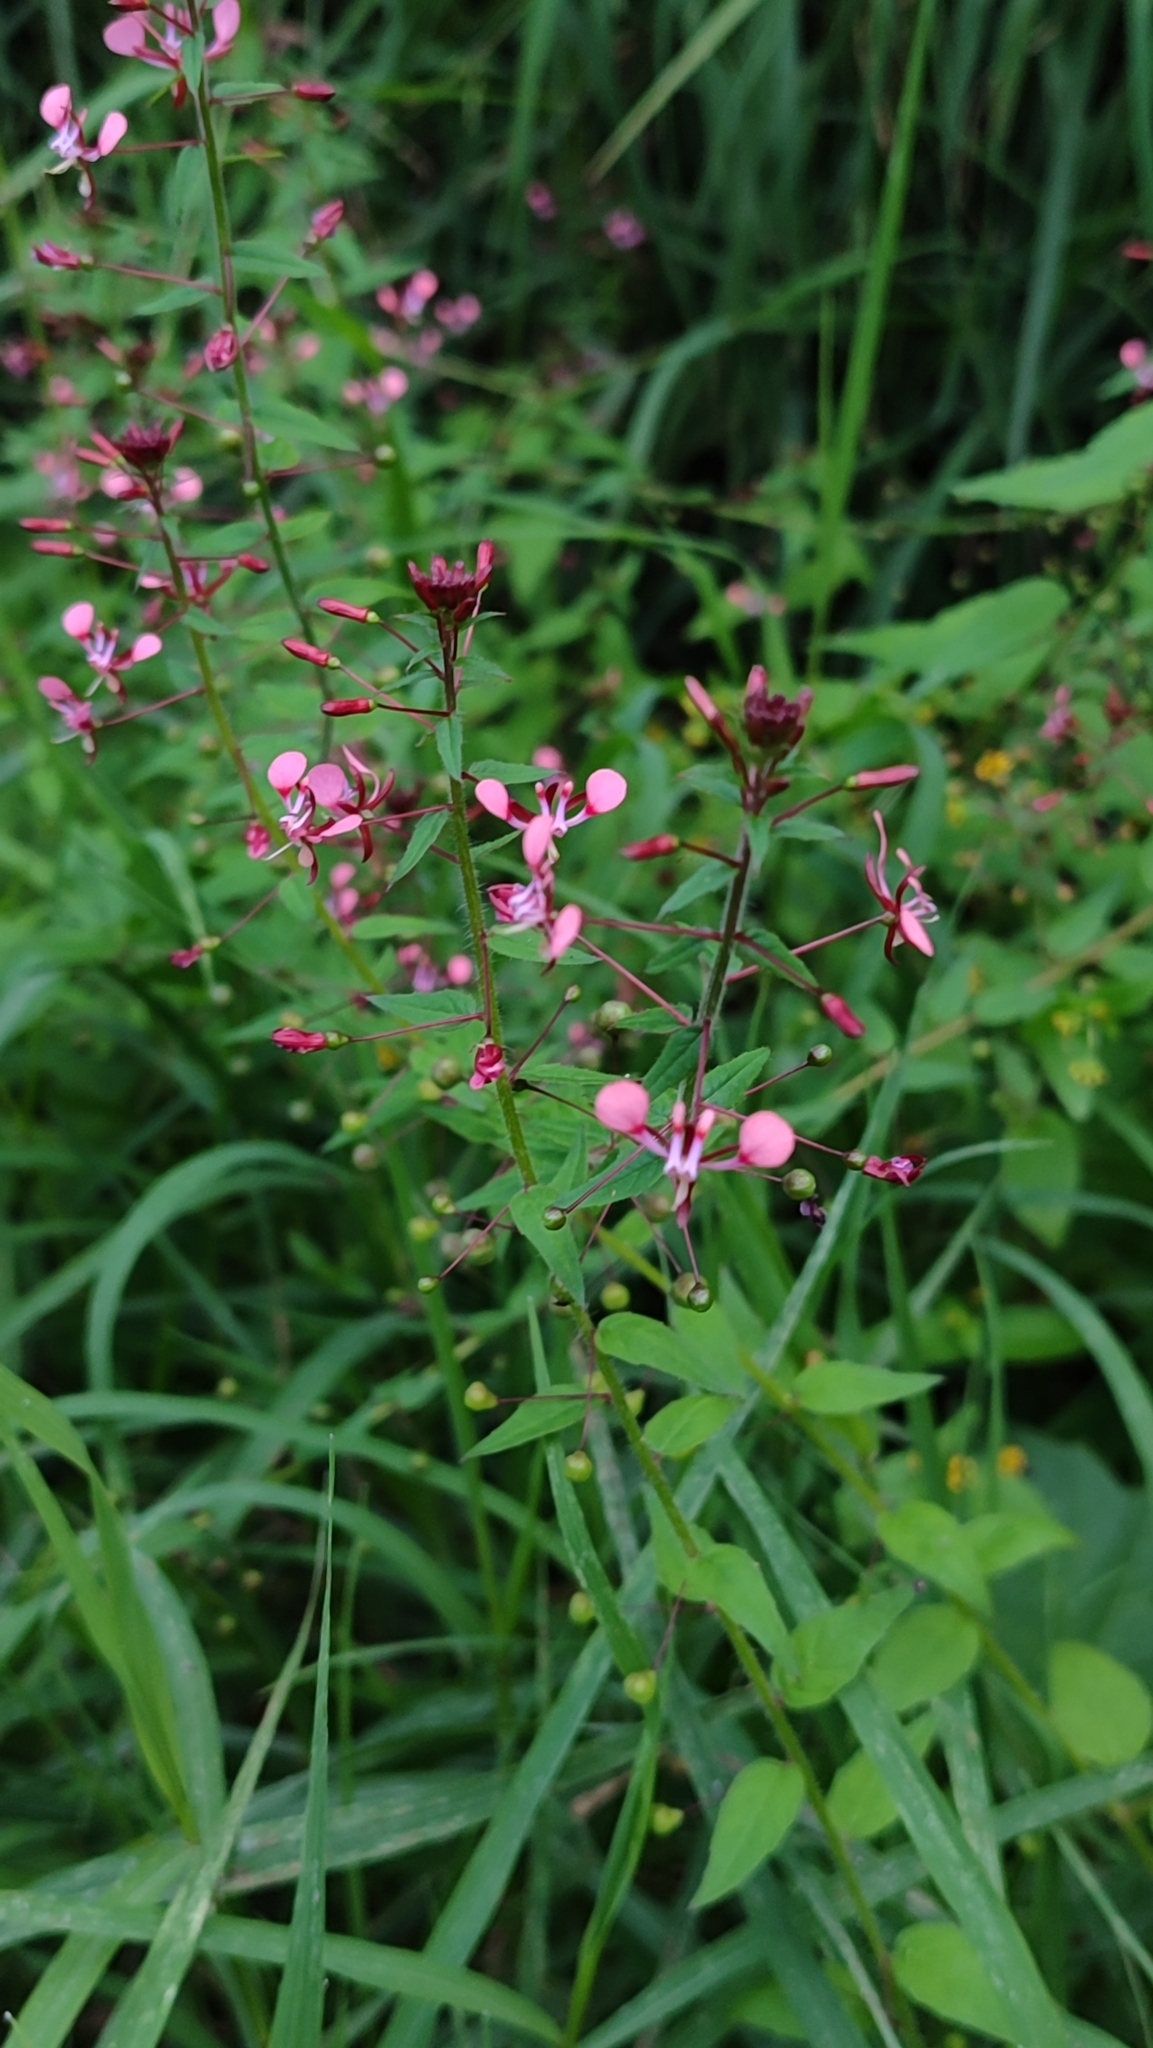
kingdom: Plantae
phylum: Tracheophyta
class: Magnoliopsida
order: Myrtales
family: Onagraceae
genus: Lopezia
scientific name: Lopezia racemosa
